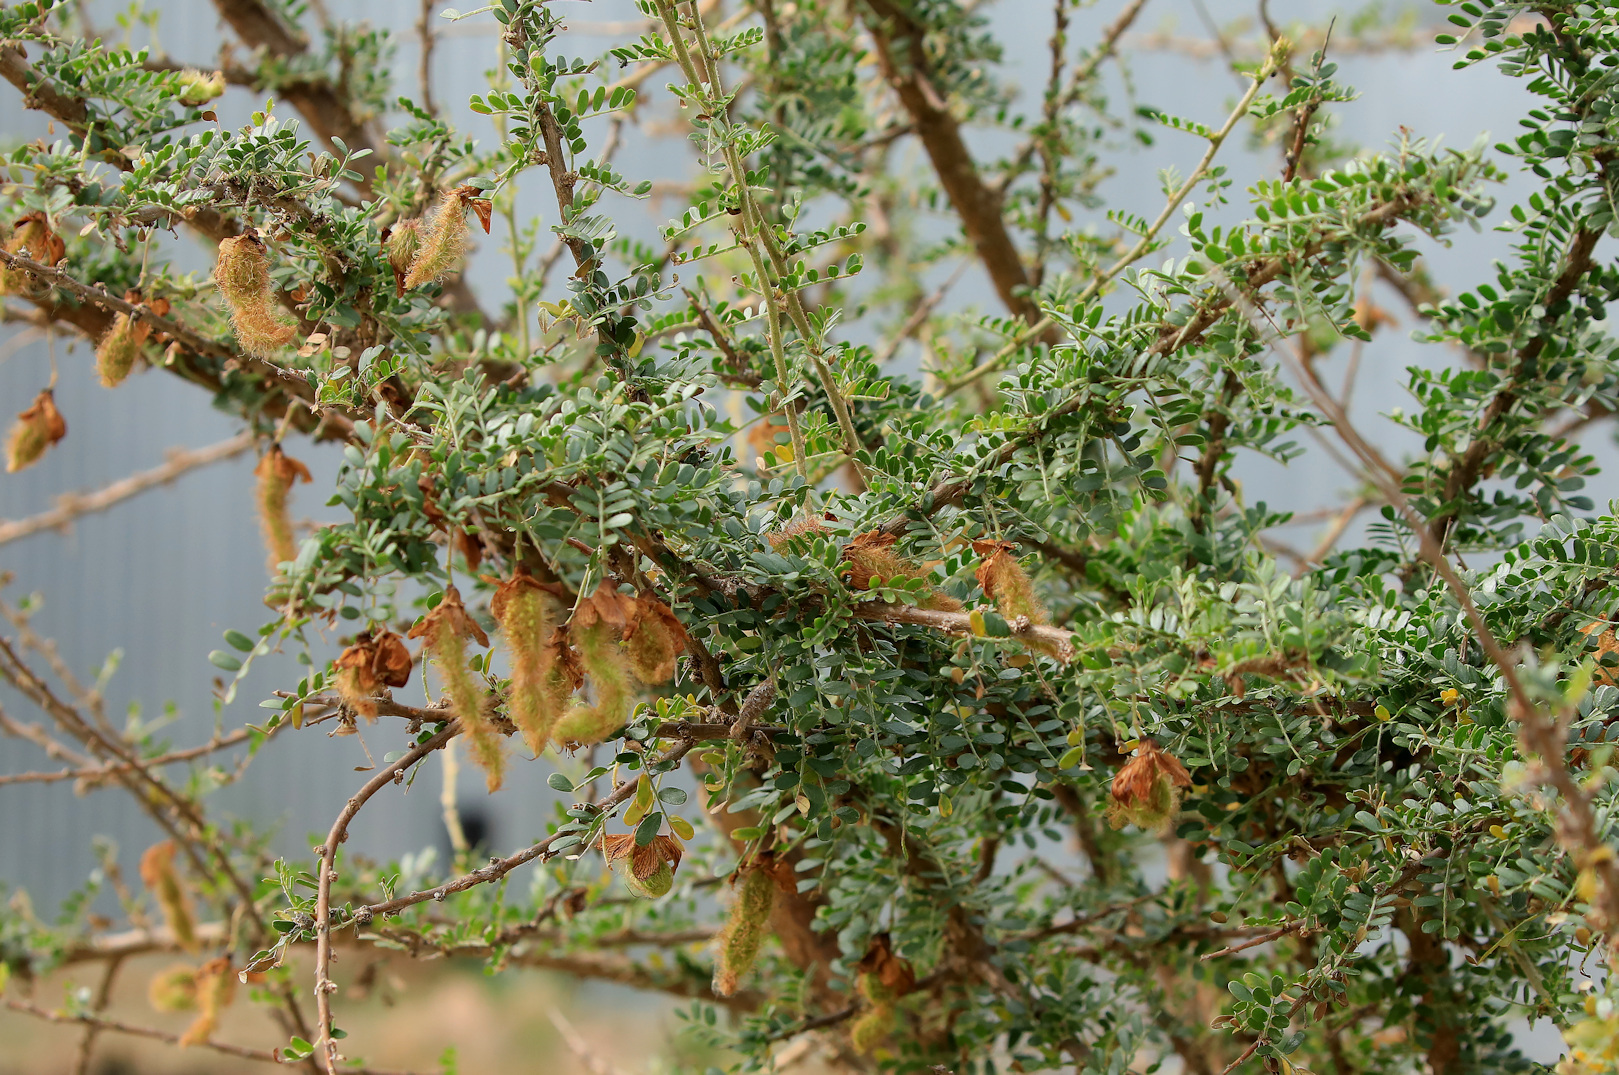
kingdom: Plantae
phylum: Tracheophyta
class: Magnoliopsida
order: Fabales
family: Fabaceae
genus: Ormocarpum
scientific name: Ormocarpum trichocarpum
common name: Caterpillar bush
